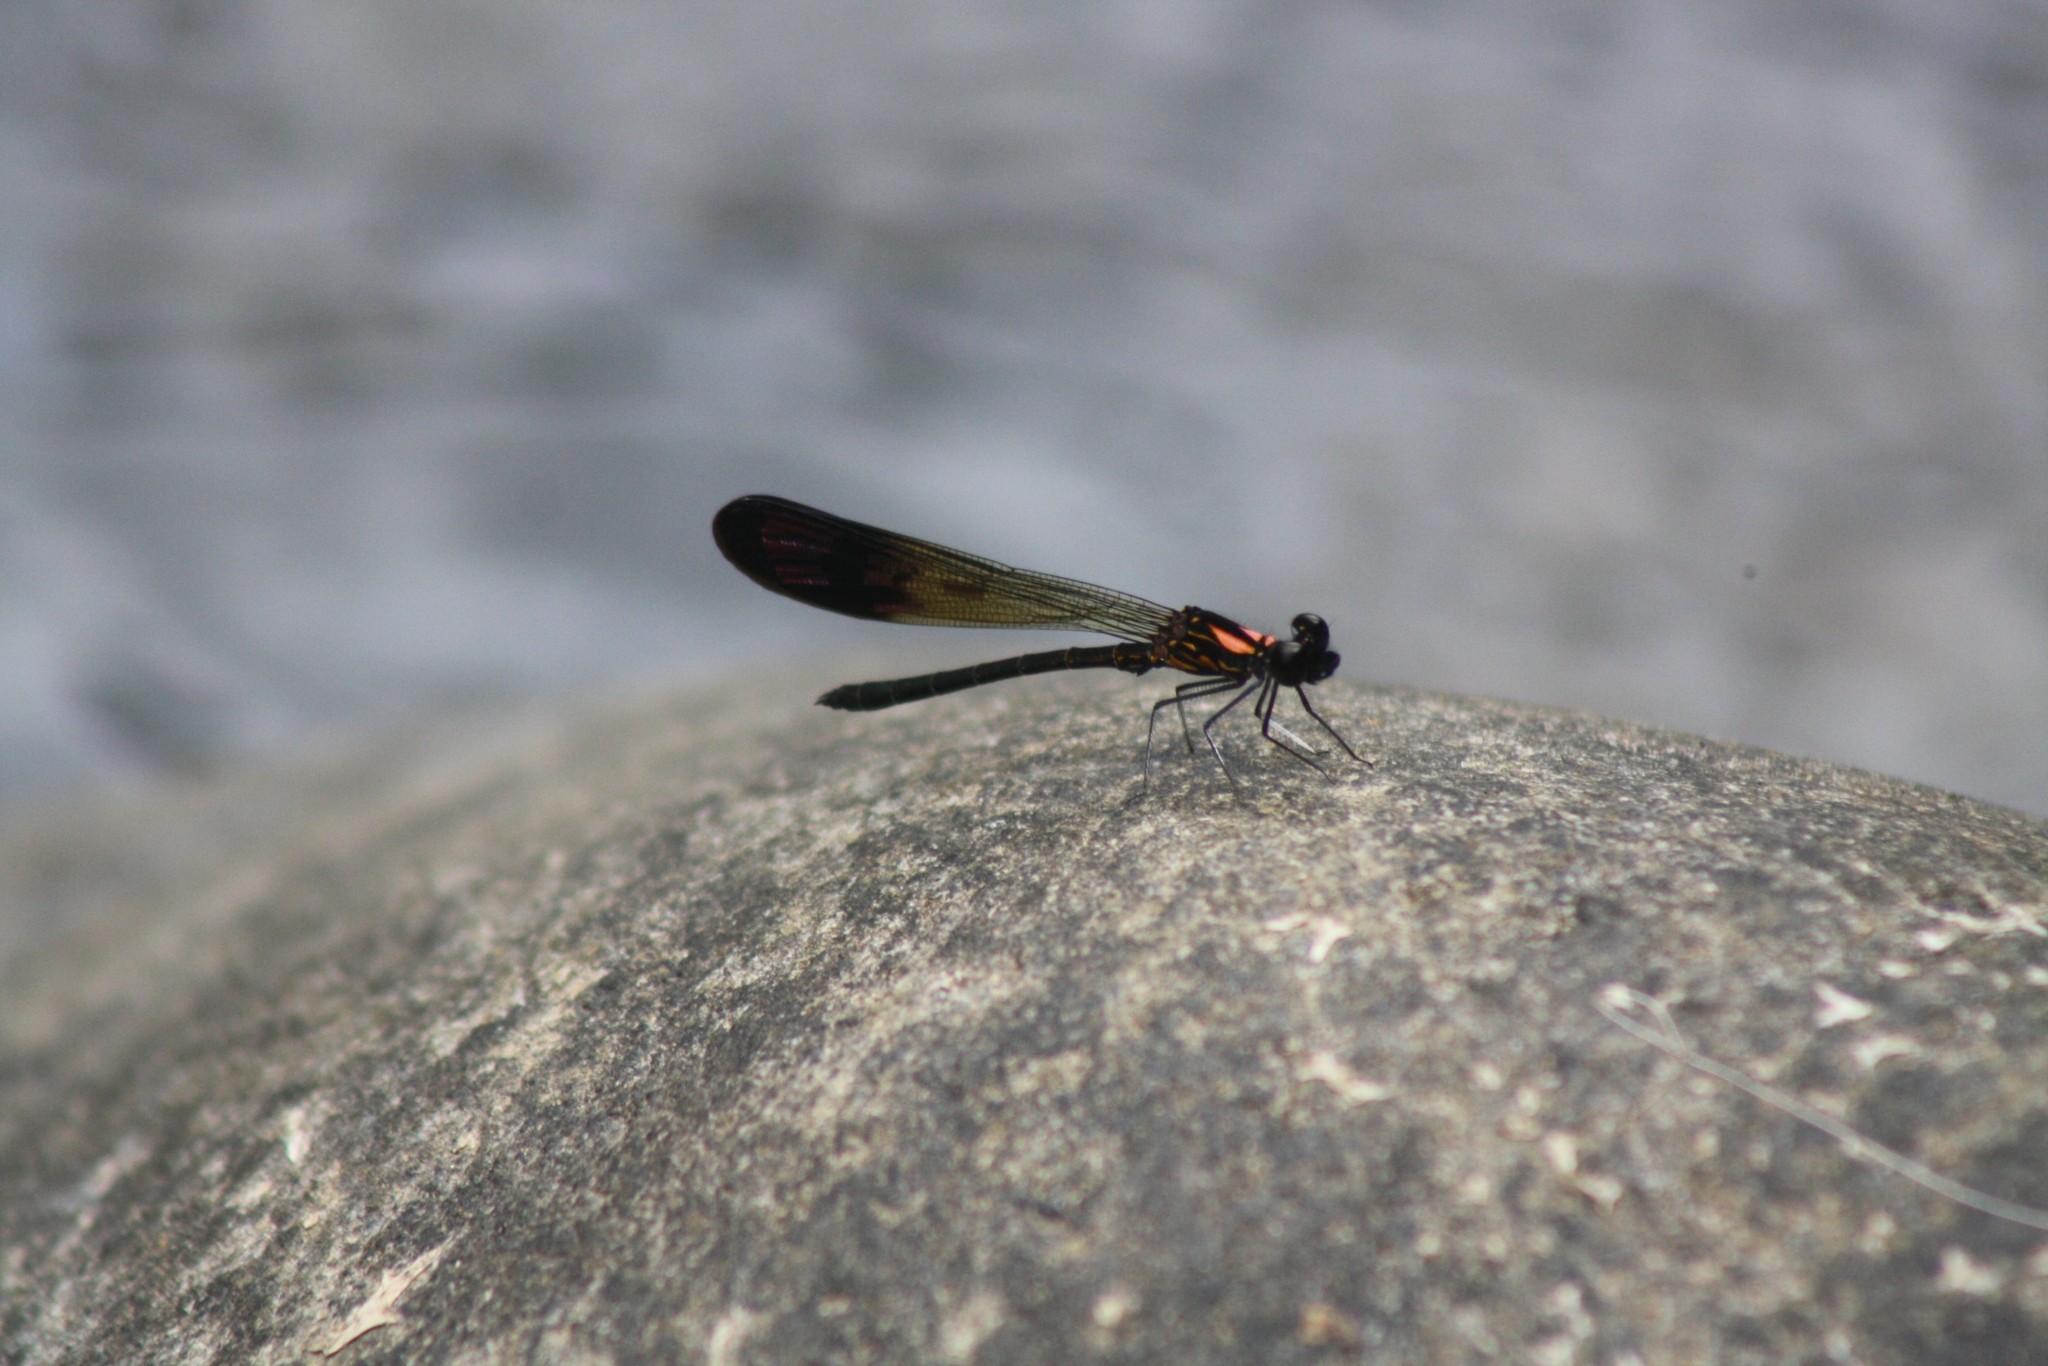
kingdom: Animalia
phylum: Arthropoda
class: Insecta
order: Odonata
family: Chlorocyphidae
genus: Heliocypha
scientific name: Heliocypha bisignata
